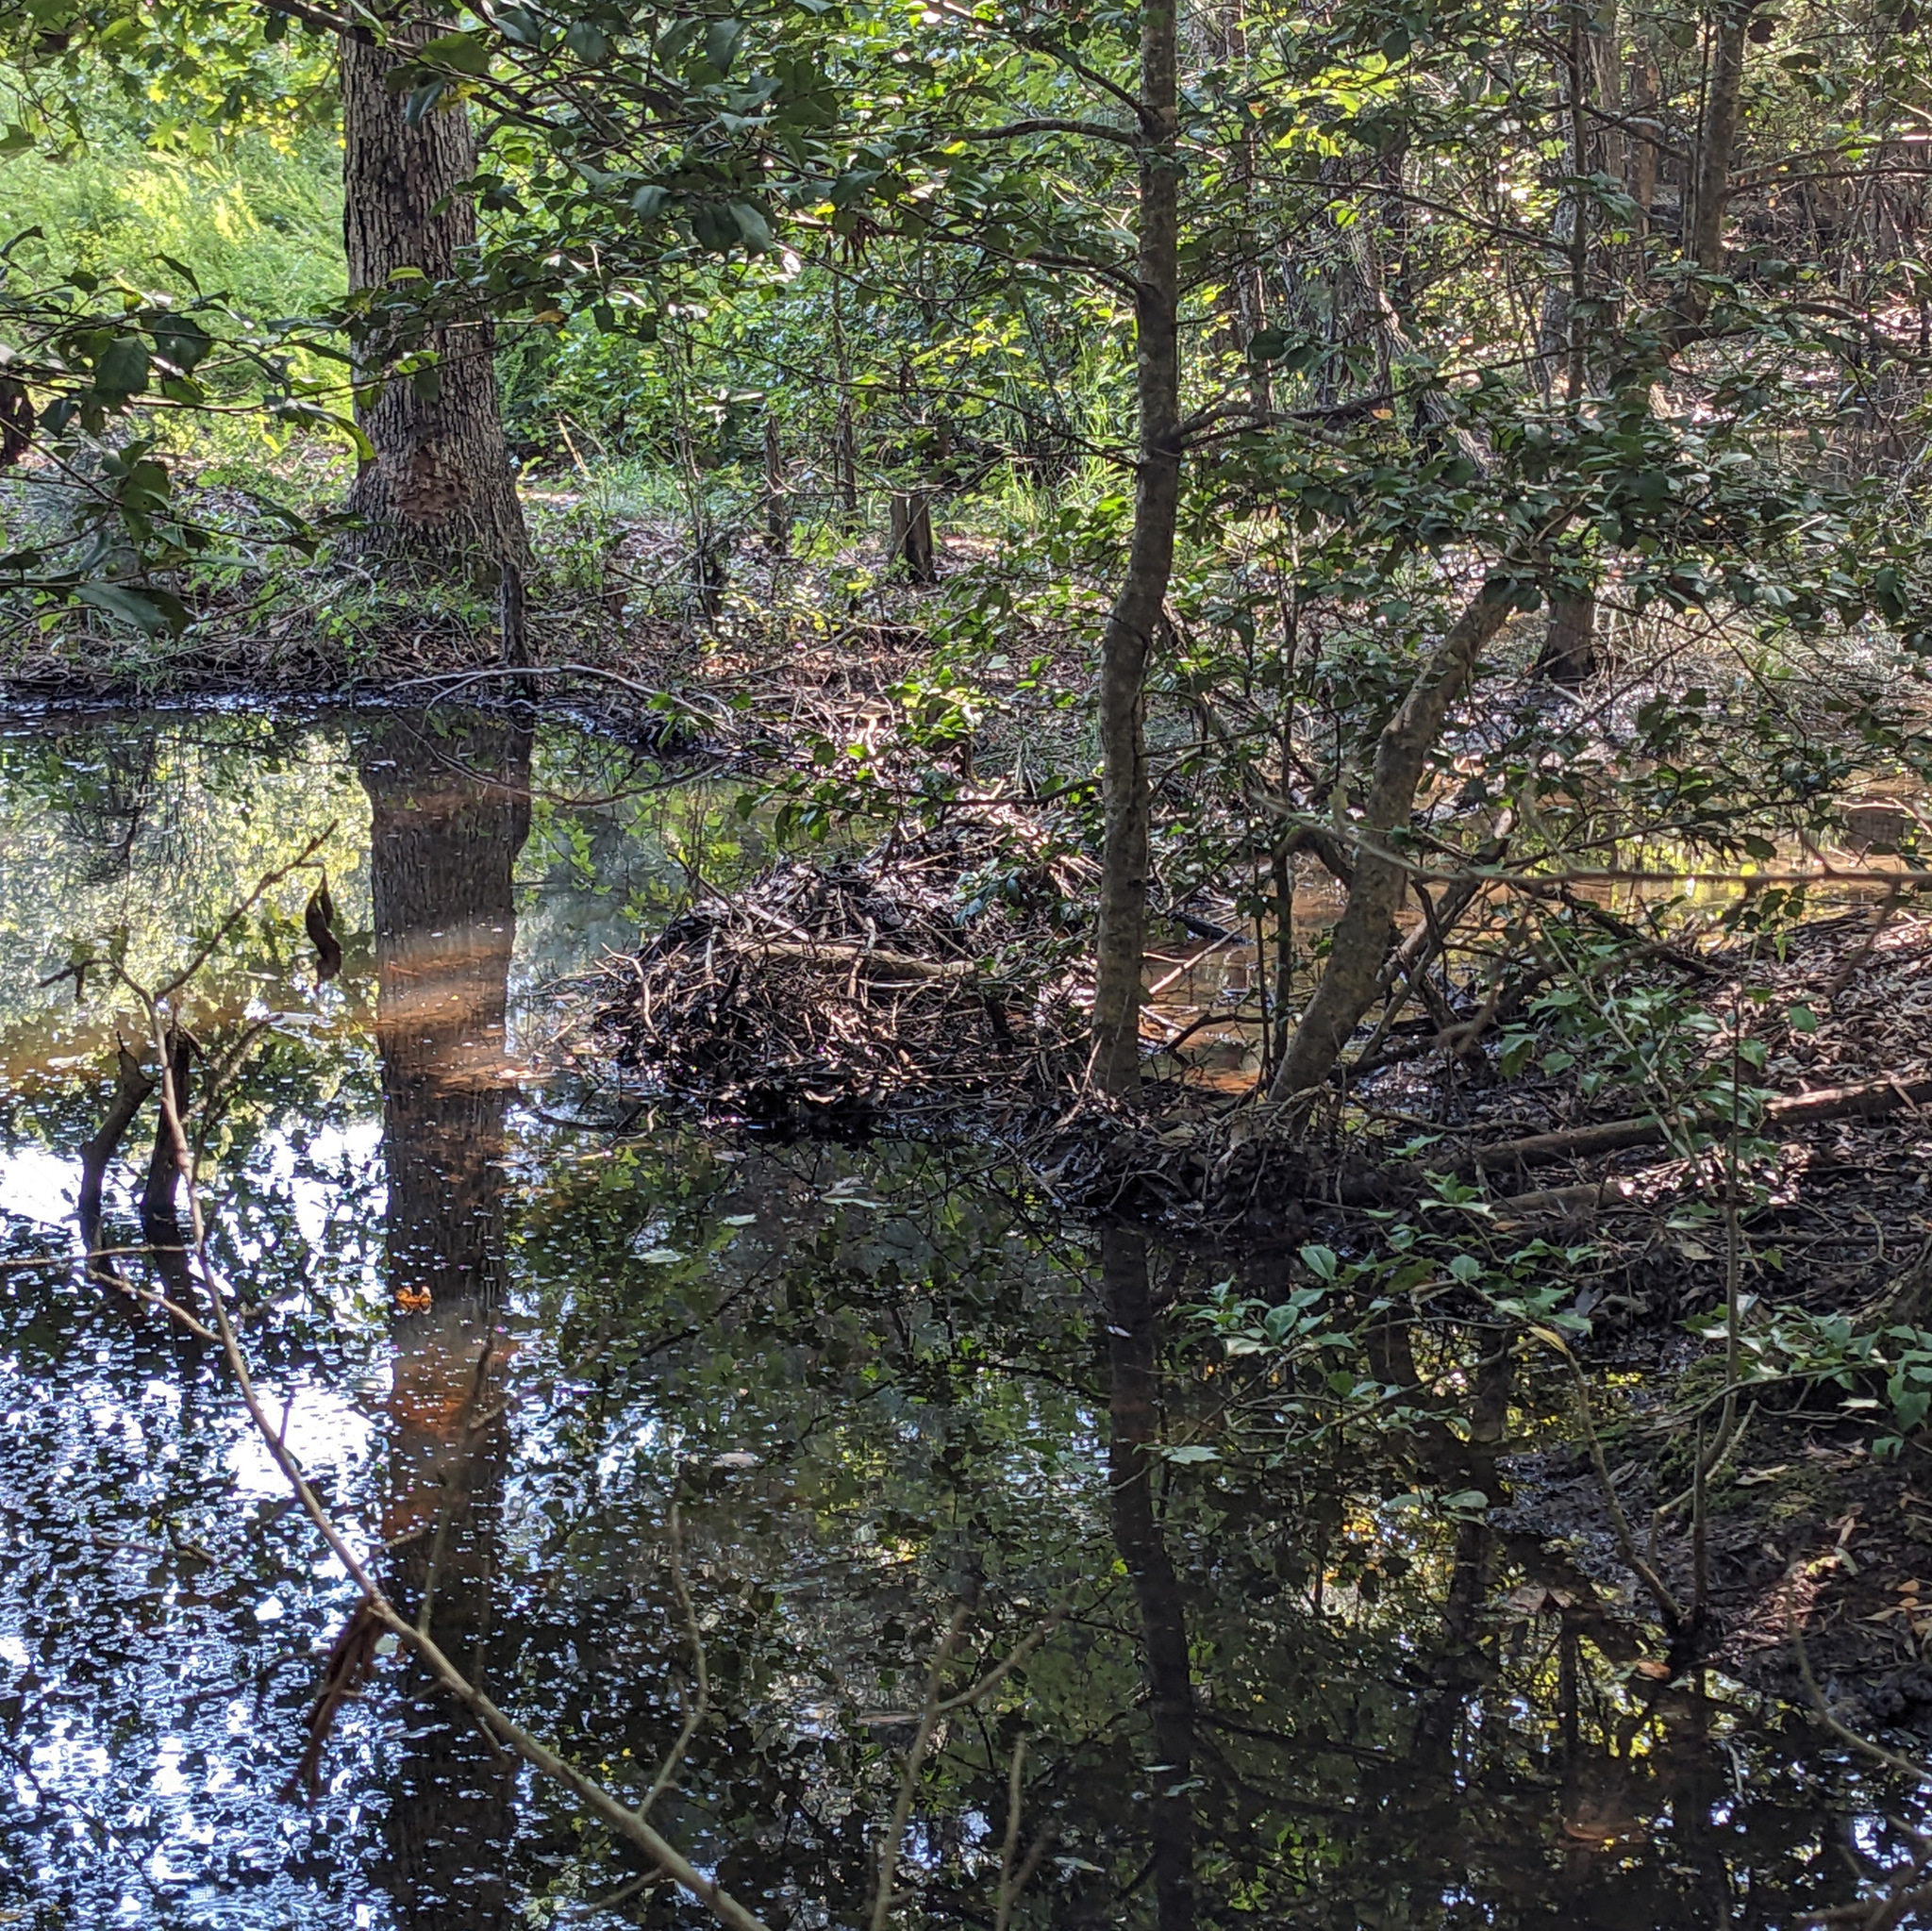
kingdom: Animalia
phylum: Chordata
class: Mammalia
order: Rodentia
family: Castoridae
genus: Castor
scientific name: Castor canadensis
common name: American beaver
